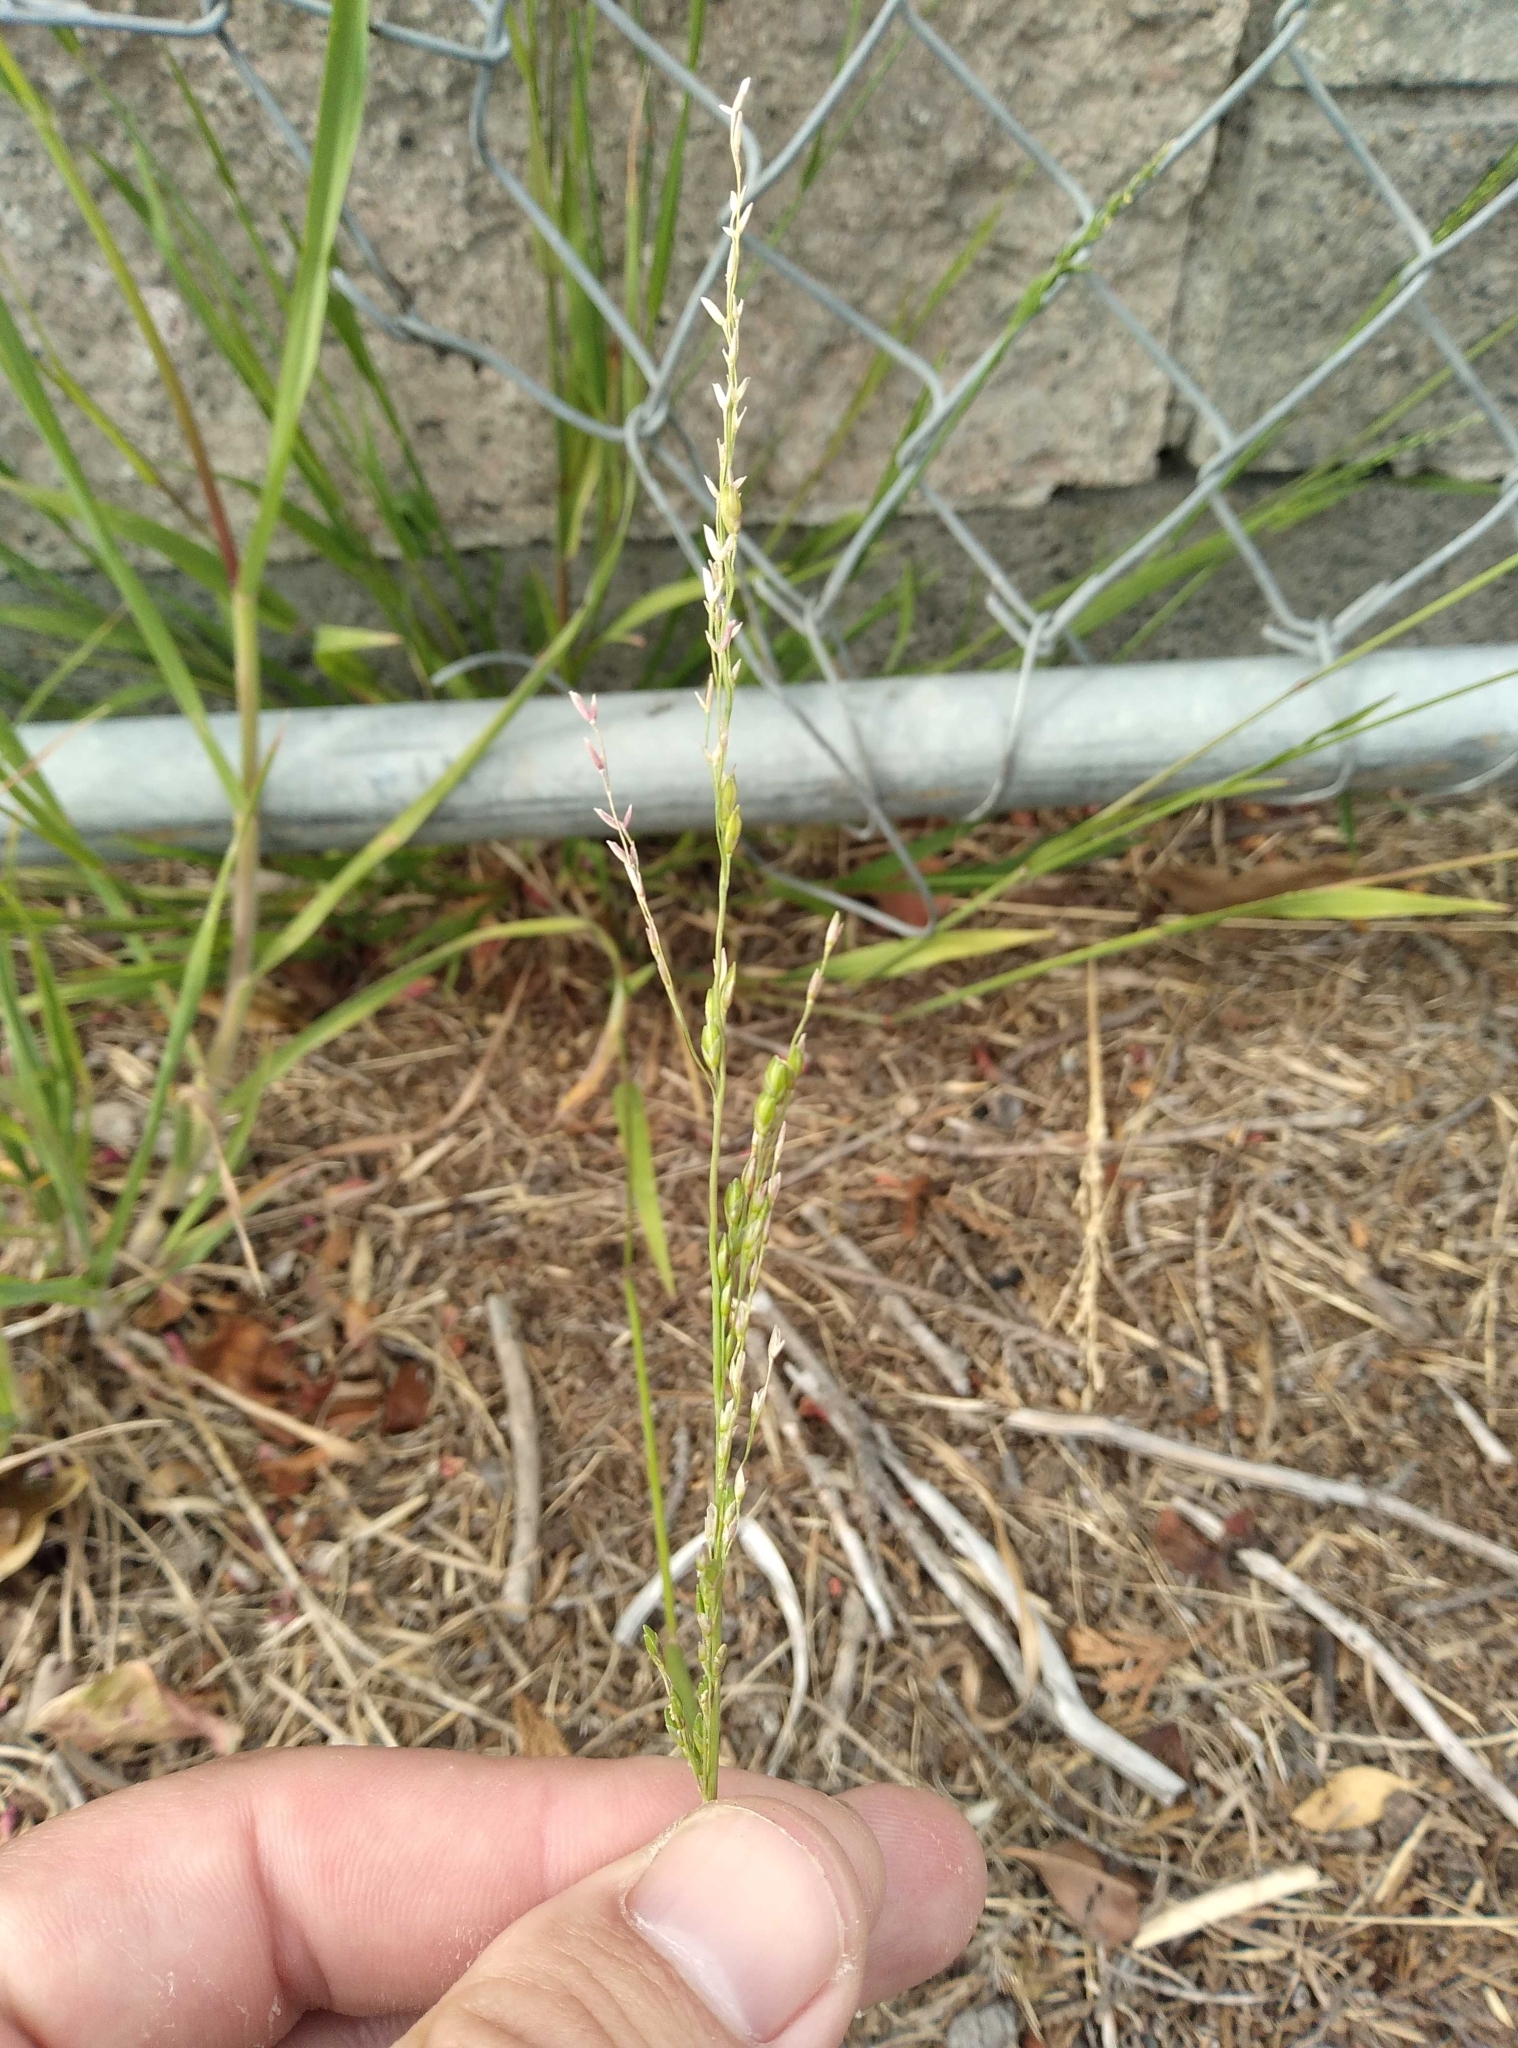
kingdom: Plantae
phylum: Tracheophyta
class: Liliopsida
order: Poales
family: Poaceae
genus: Ehrharta
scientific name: Ehrharta erecta
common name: Panic veldtgrass
